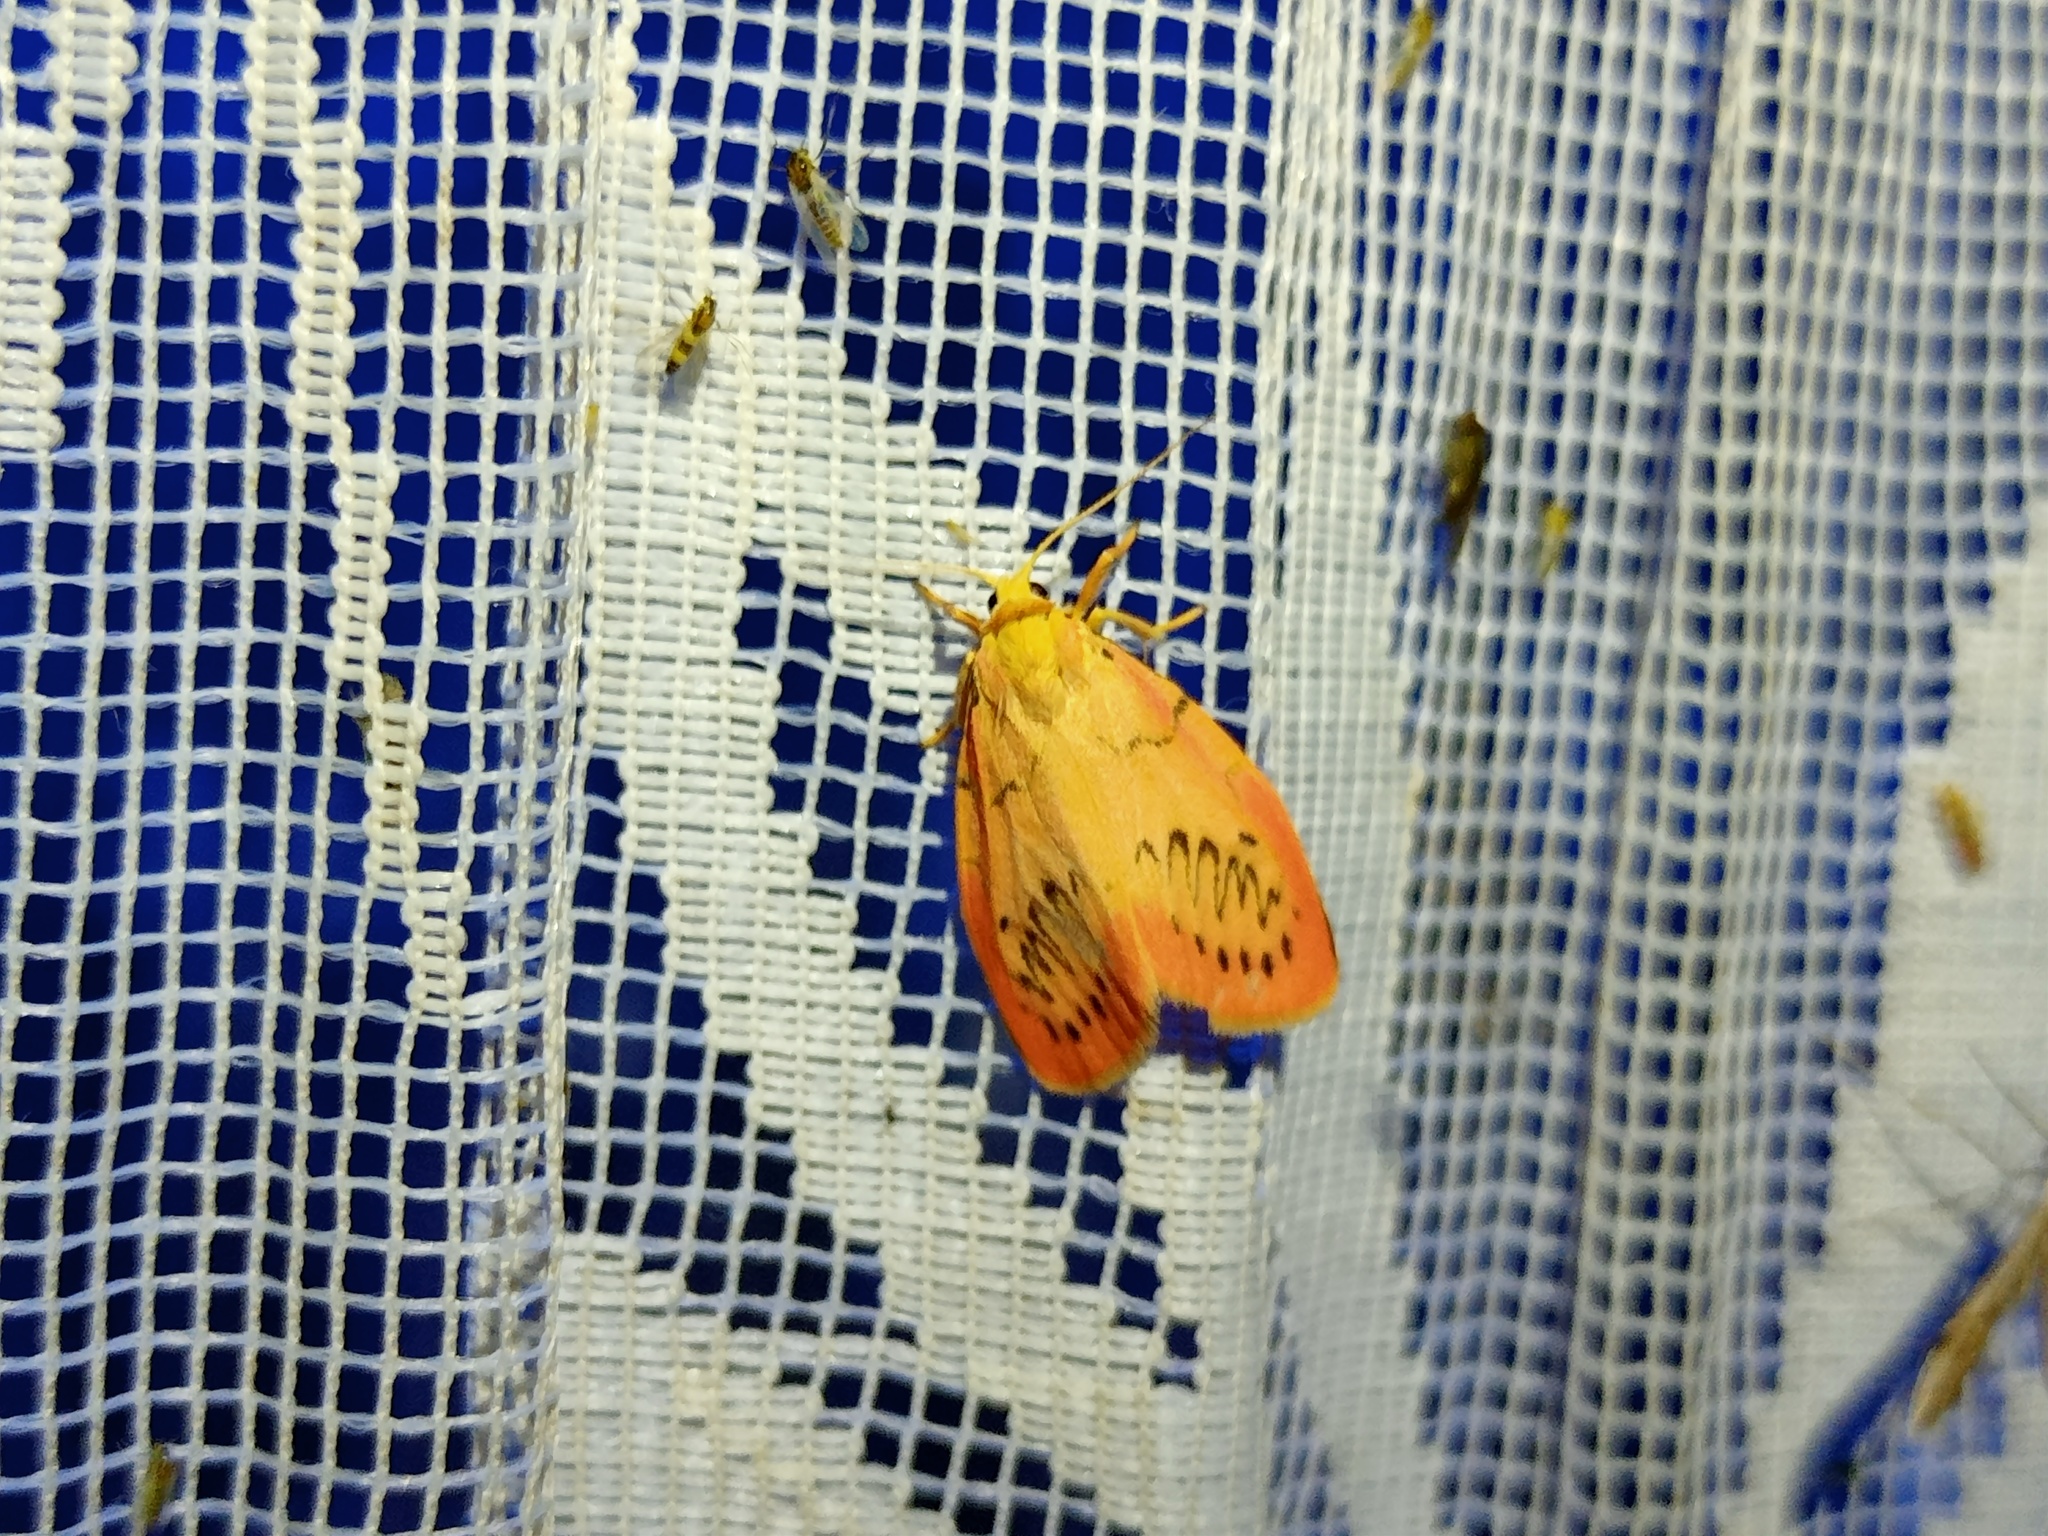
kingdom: Animalia
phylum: Arthropoda
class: Insecta
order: Lepidoptera
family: Erebidae
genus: Miltochrista
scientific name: Miltochrista miniata
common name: Rosy footman
